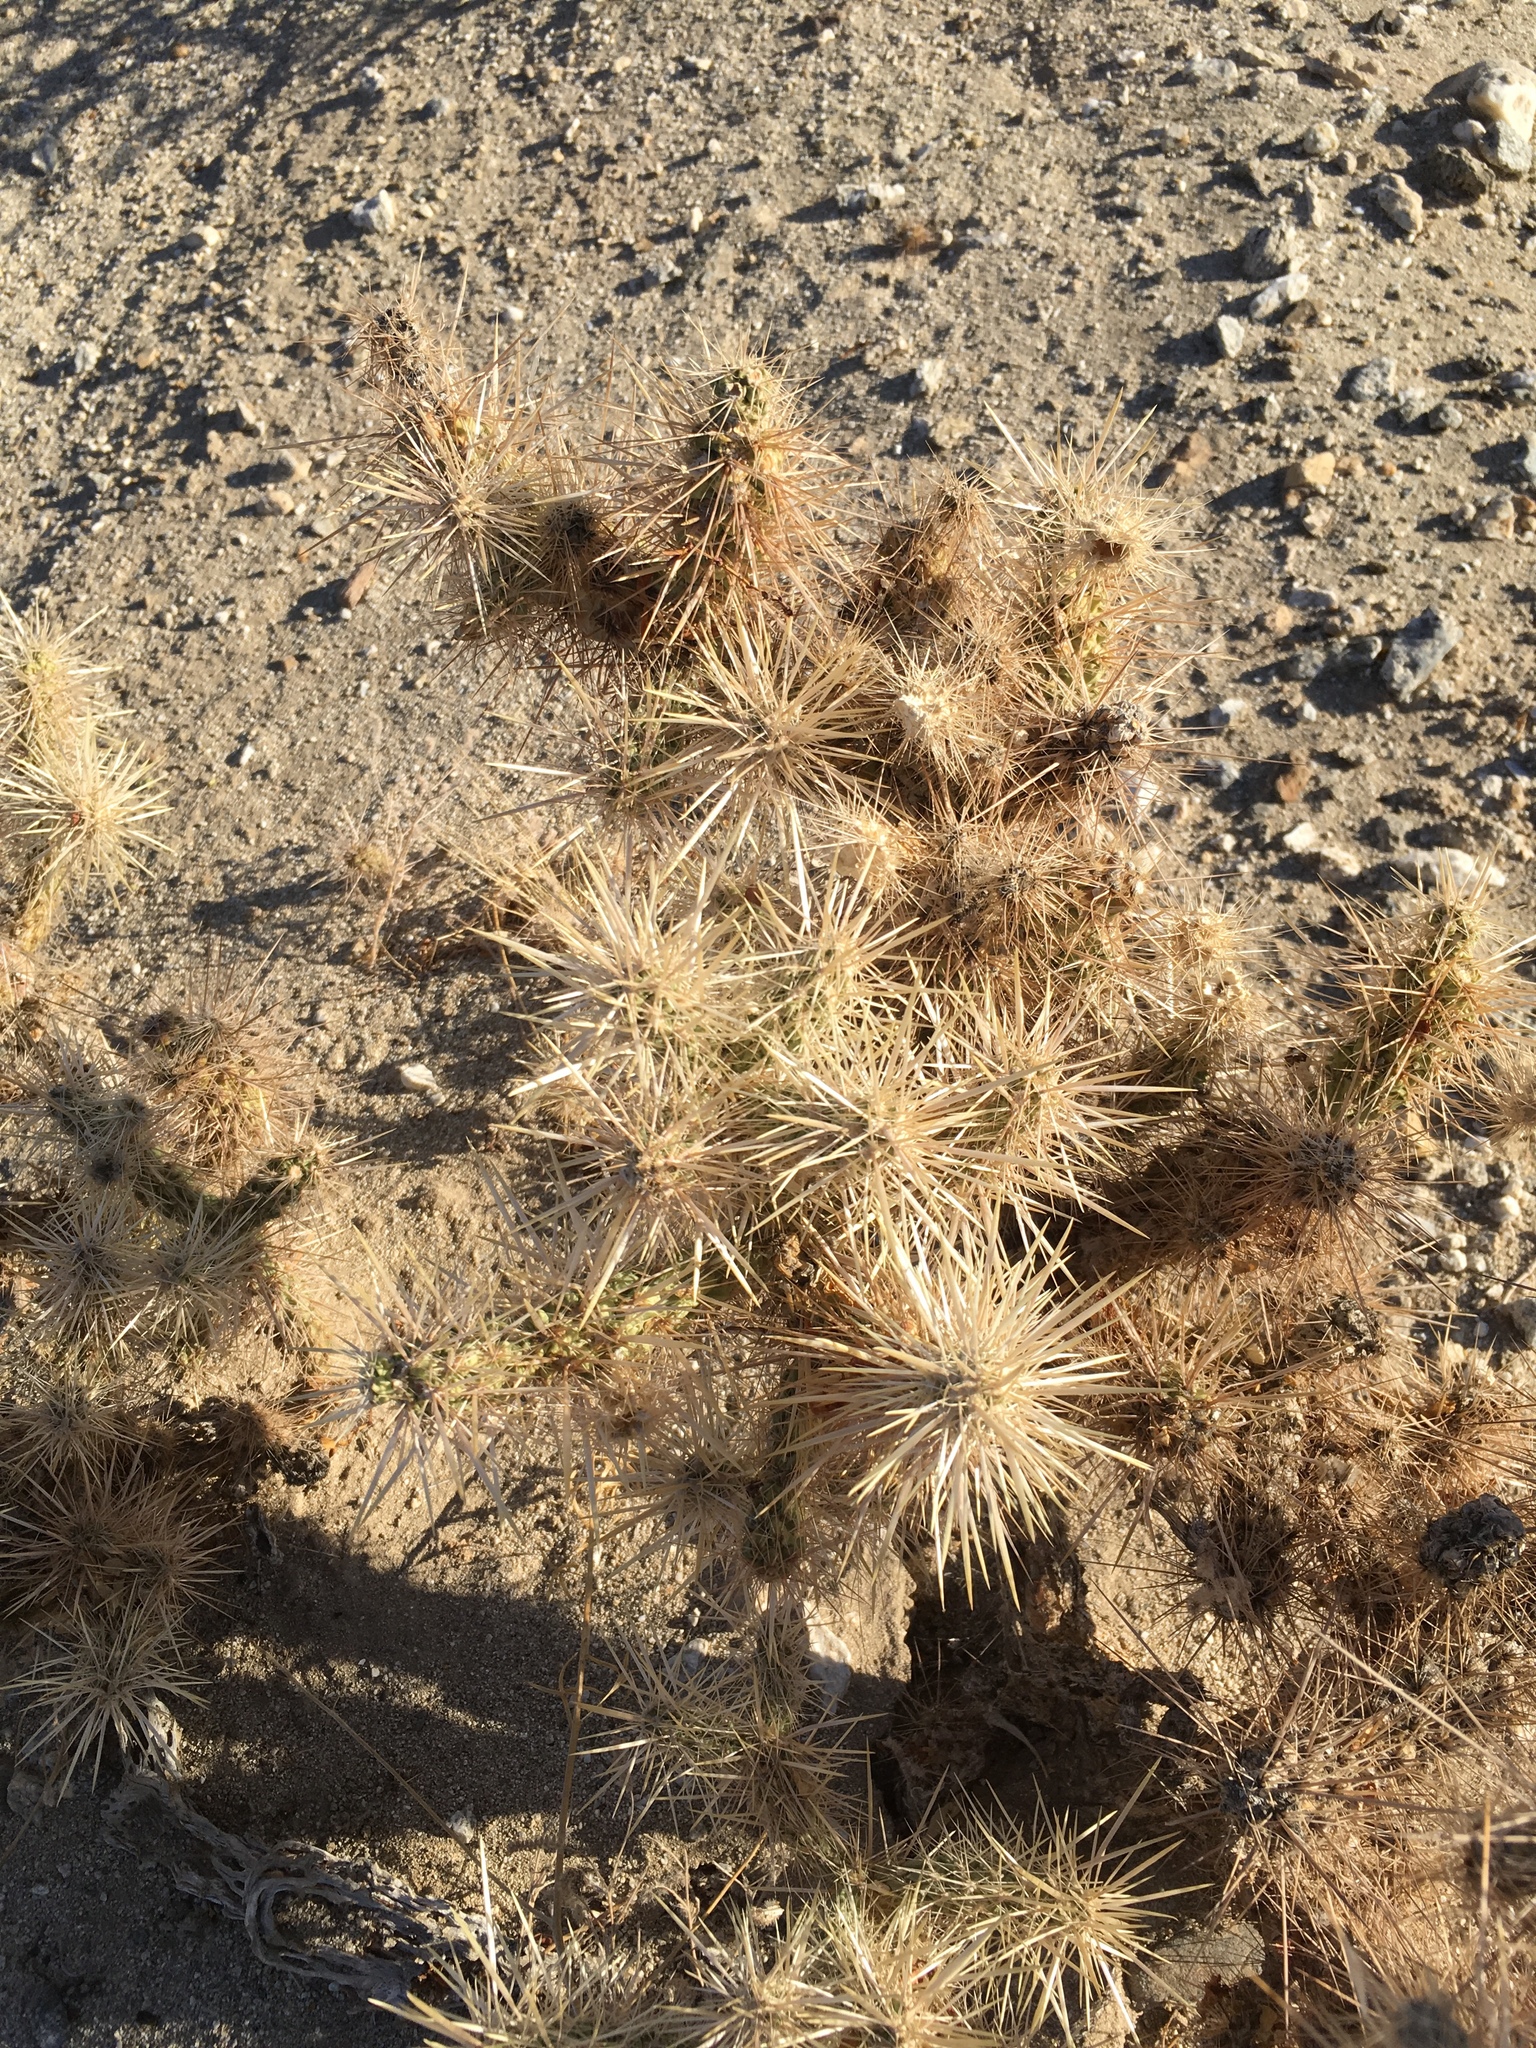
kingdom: Plantae
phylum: Tracheophyta
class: Magnoliopsida
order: Caryophyllales
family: Cactaceae
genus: Cylindropuntia
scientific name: Cylindropuntia echinocarpa
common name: Ground cholla
